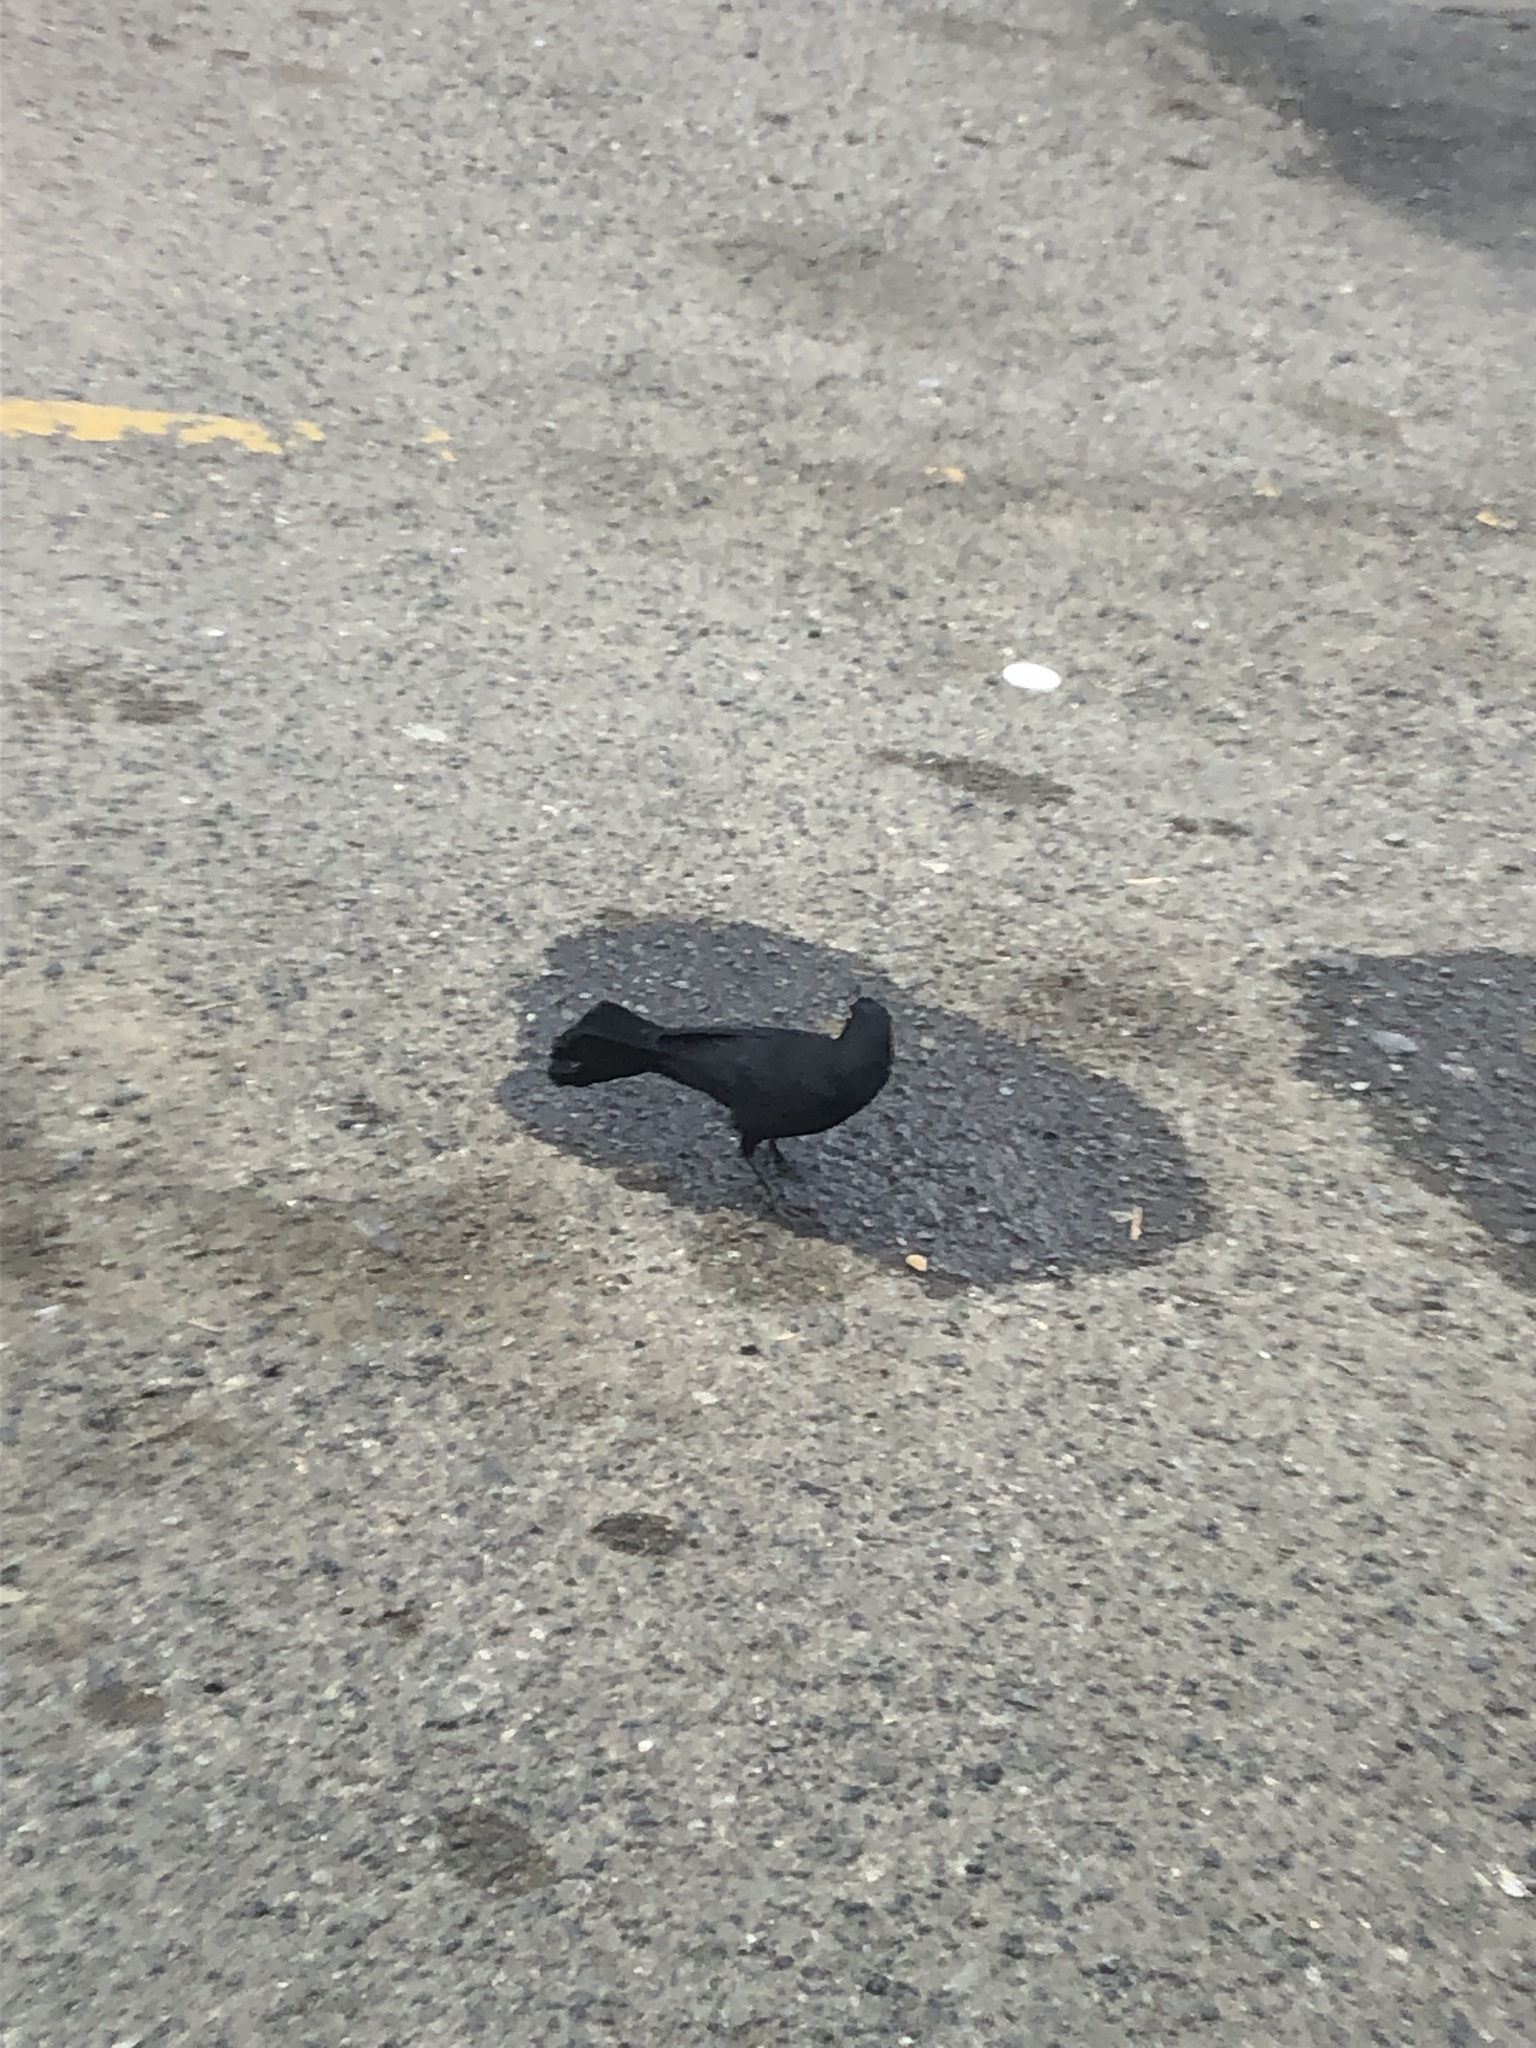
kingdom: Animalia
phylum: Chordata
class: Aves
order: Passeriformes
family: Icteridae
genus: Quiscalus
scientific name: Quiscalus niger
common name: Greater antillean grackle
